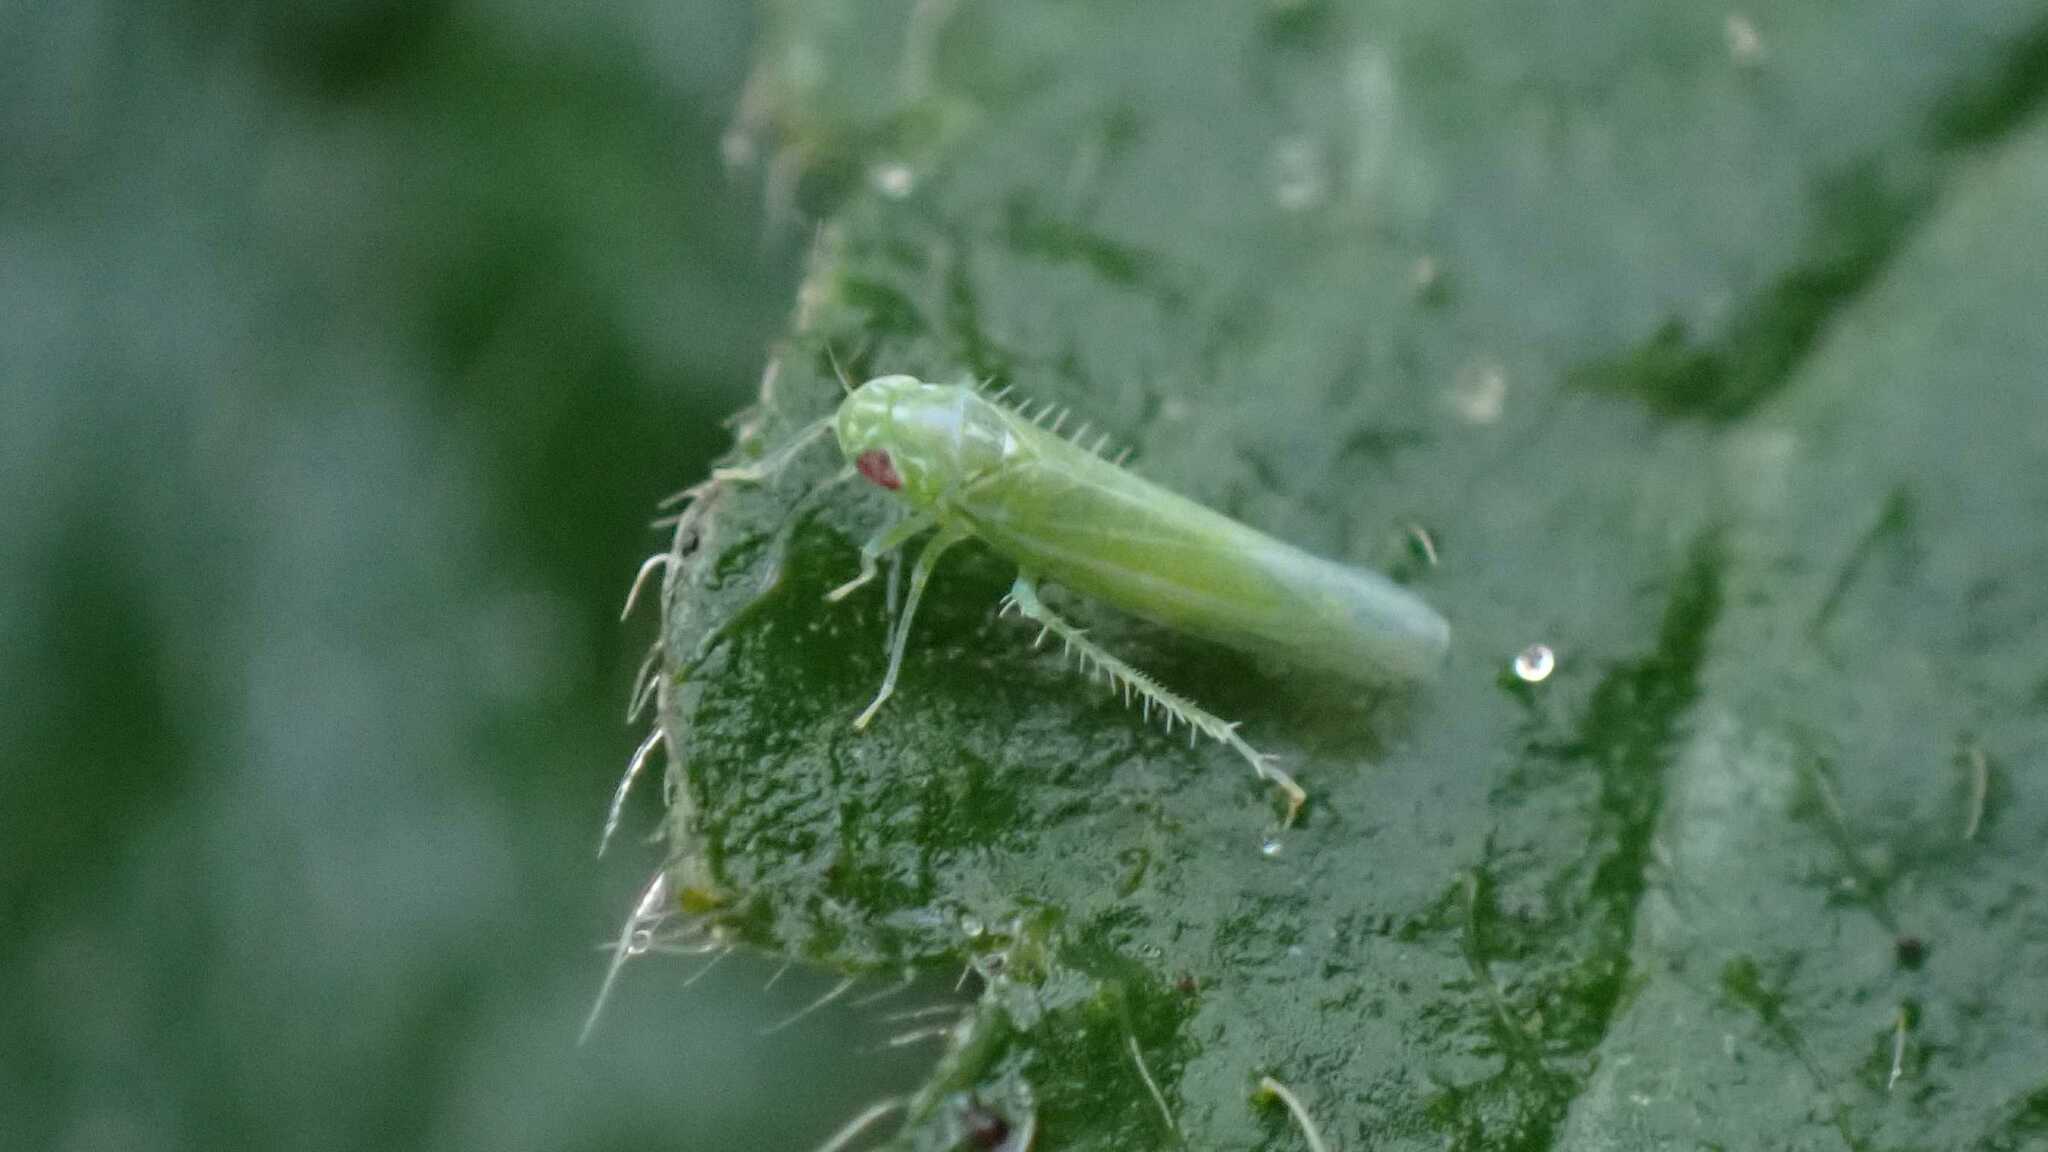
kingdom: Animalia
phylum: Arthropoda
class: Insecta
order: Hemiptera
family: Cicadellidae
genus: Hebata
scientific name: Hebata vitis
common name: The smaller green leafhopper
